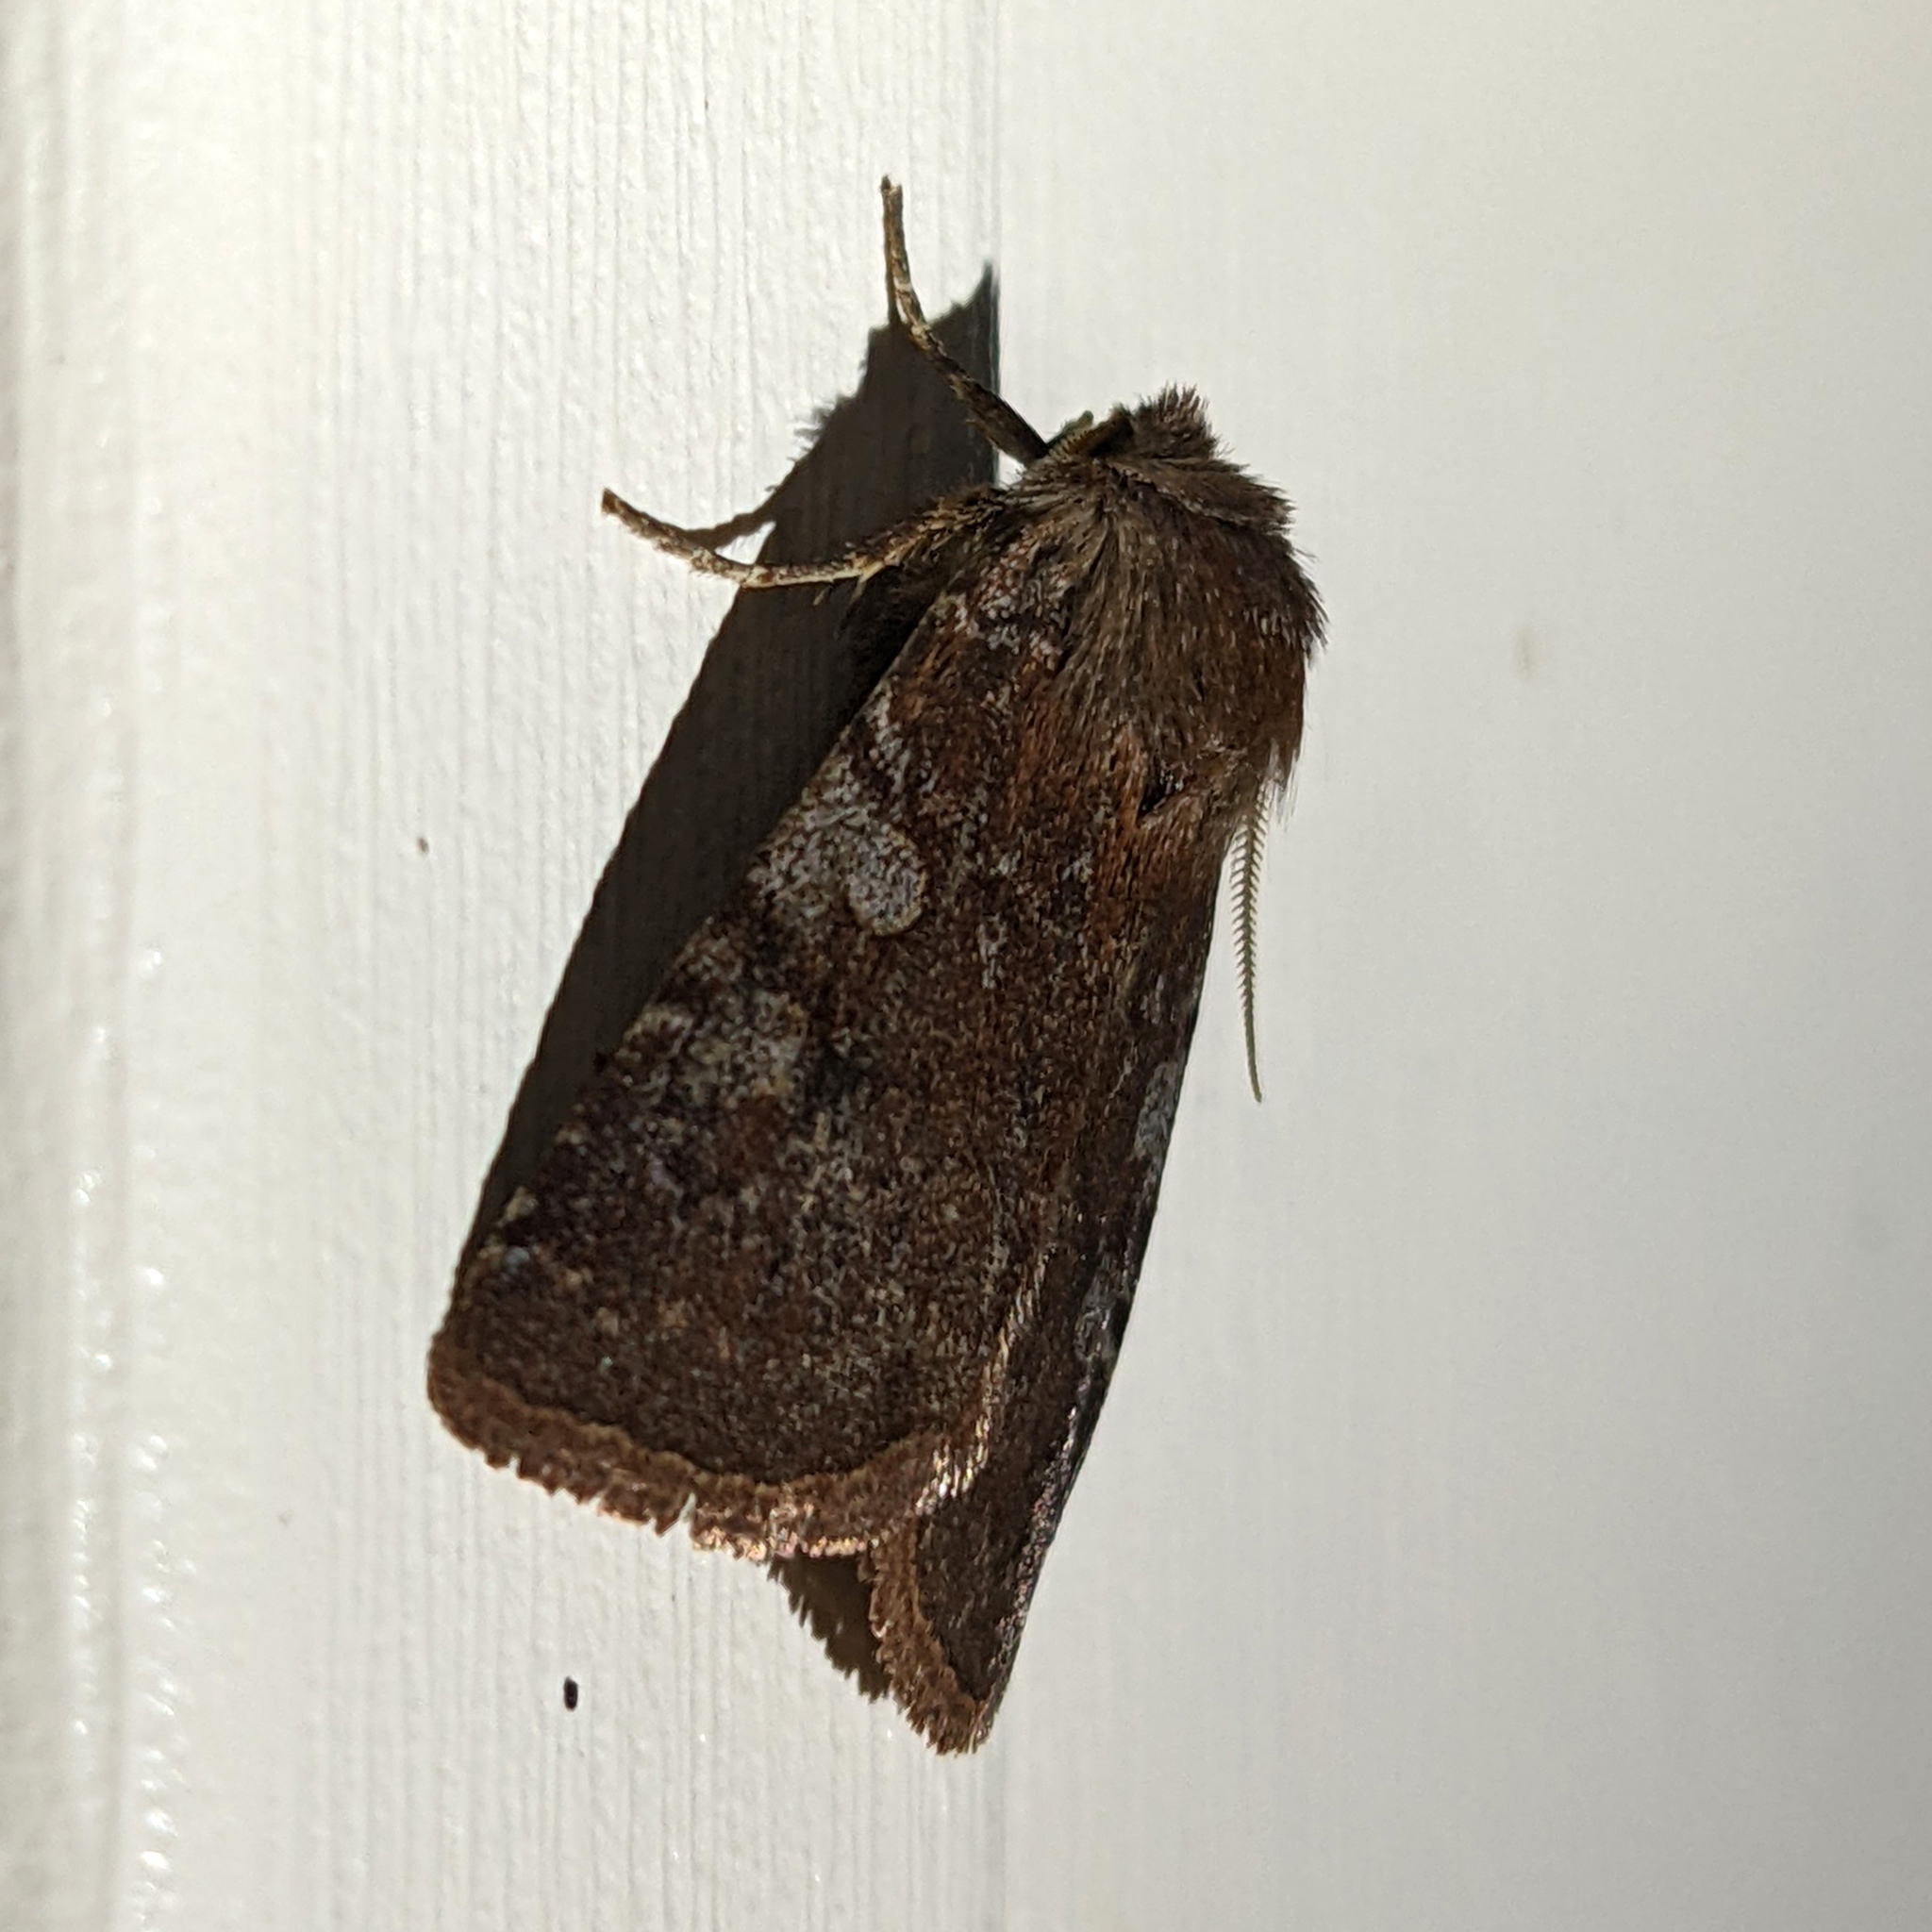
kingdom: Animalia
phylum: Arthropoda
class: Insecta
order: Lepidoptera
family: Noctuidae
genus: Cerastis
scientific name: Cerastis tenebrifera
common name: Reddish speckled dart
